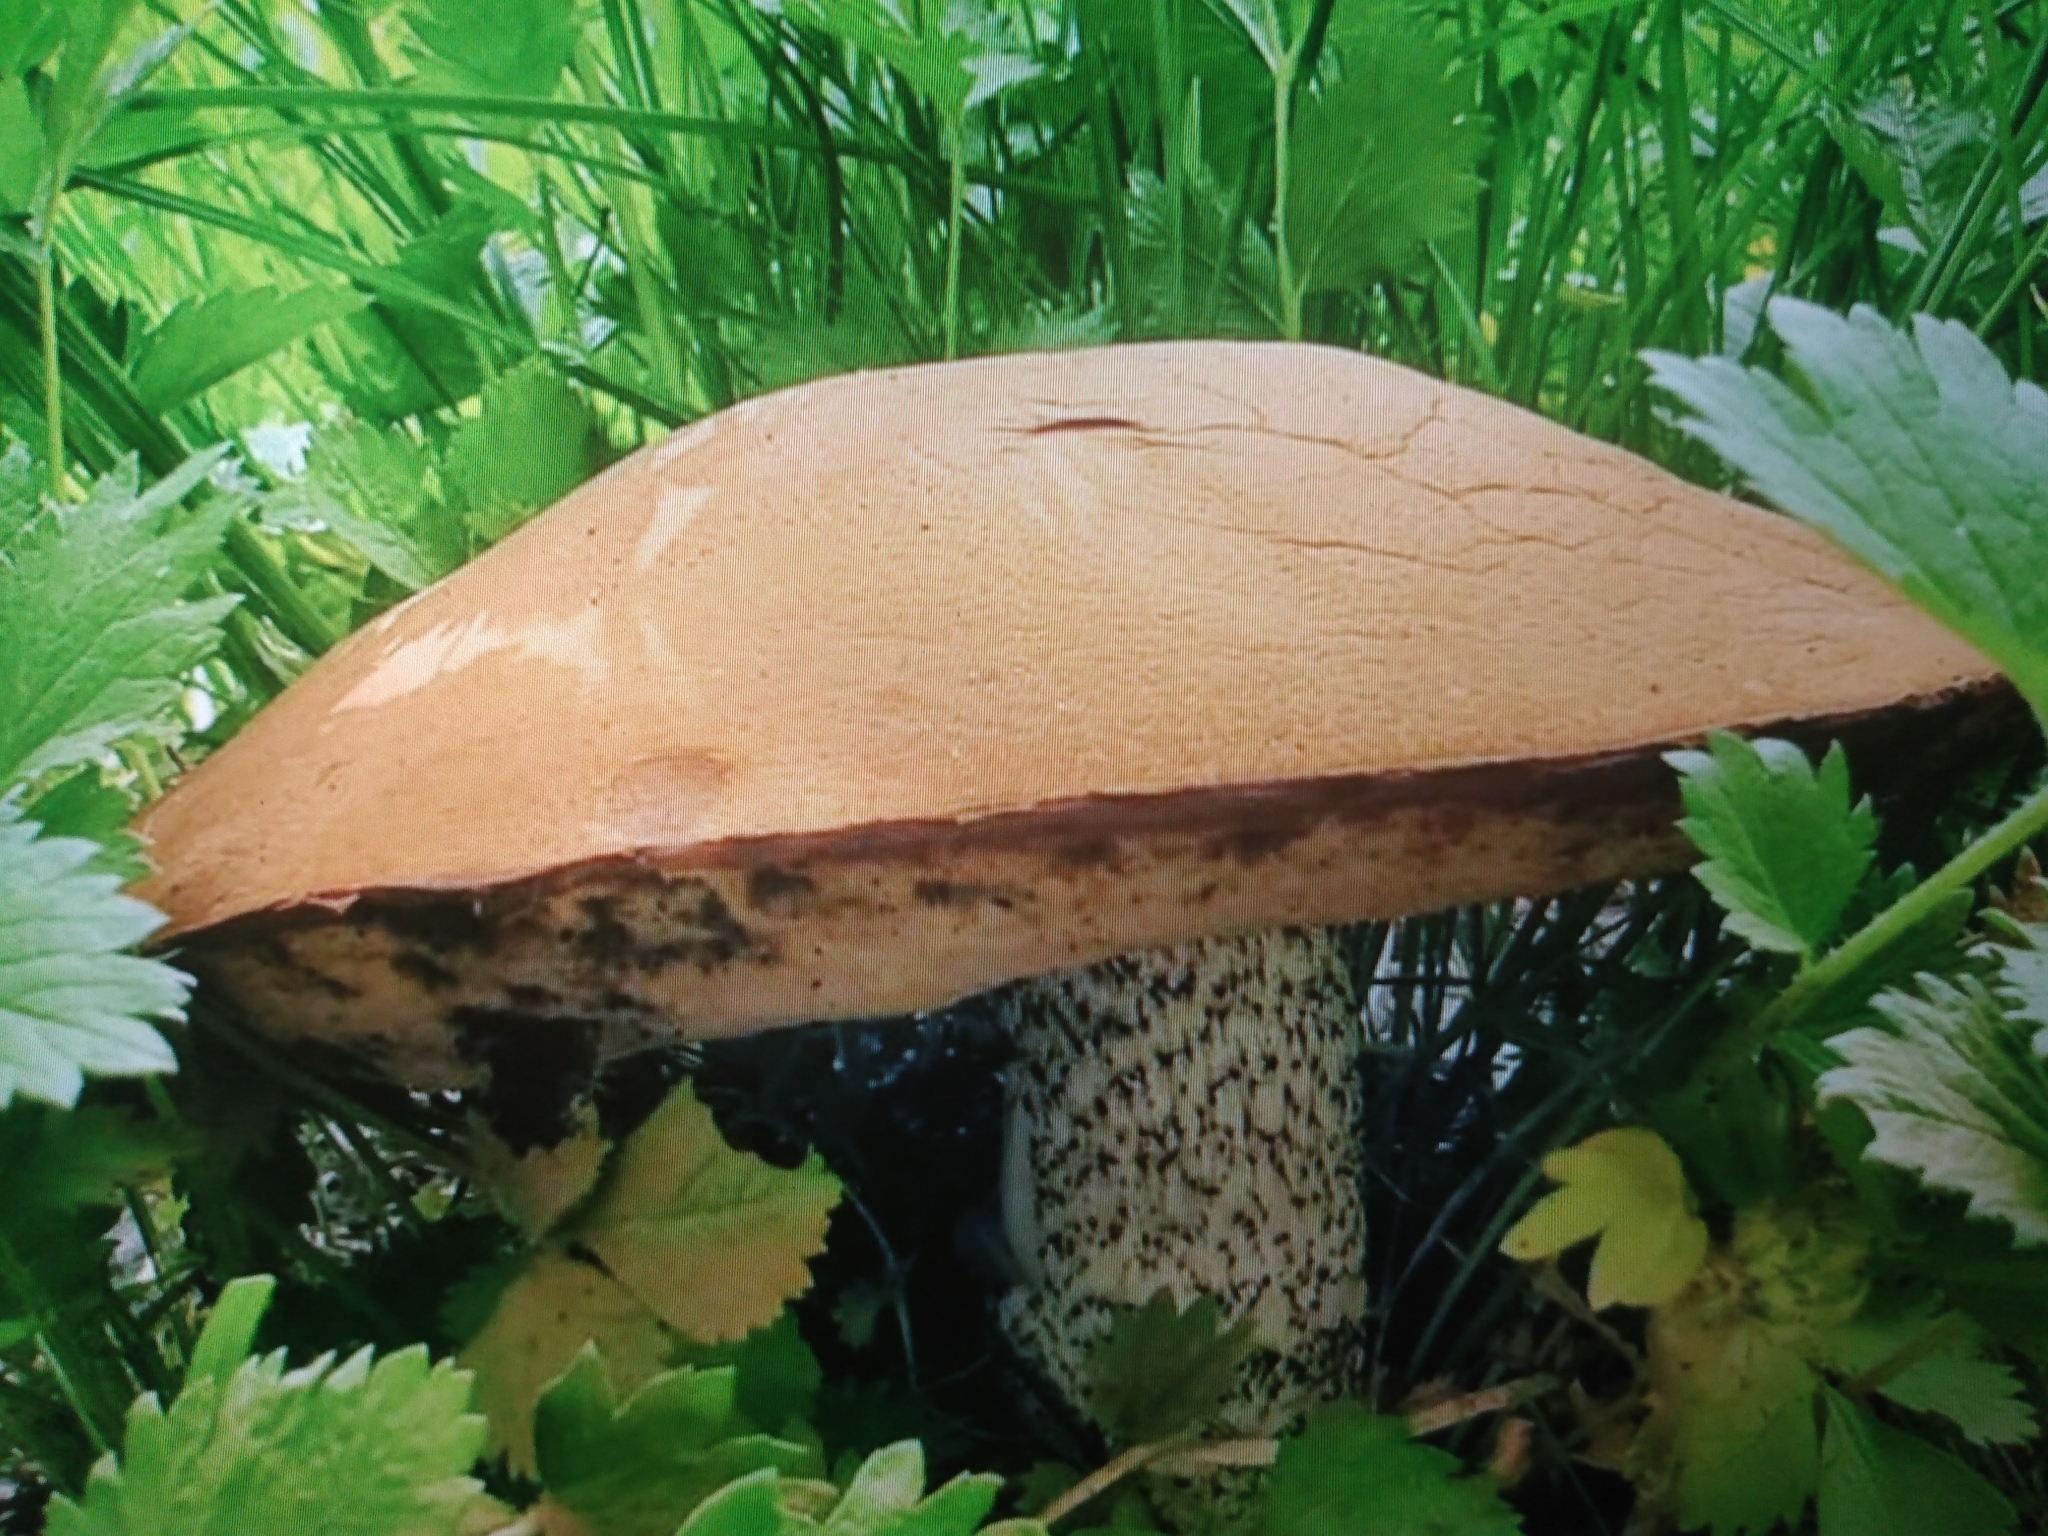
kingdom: Fungi
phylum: Basidiomycota
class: Agaricomycetes
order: Boletales
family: Boletaceae
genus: Leccinum
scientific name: Leccinum insigne
